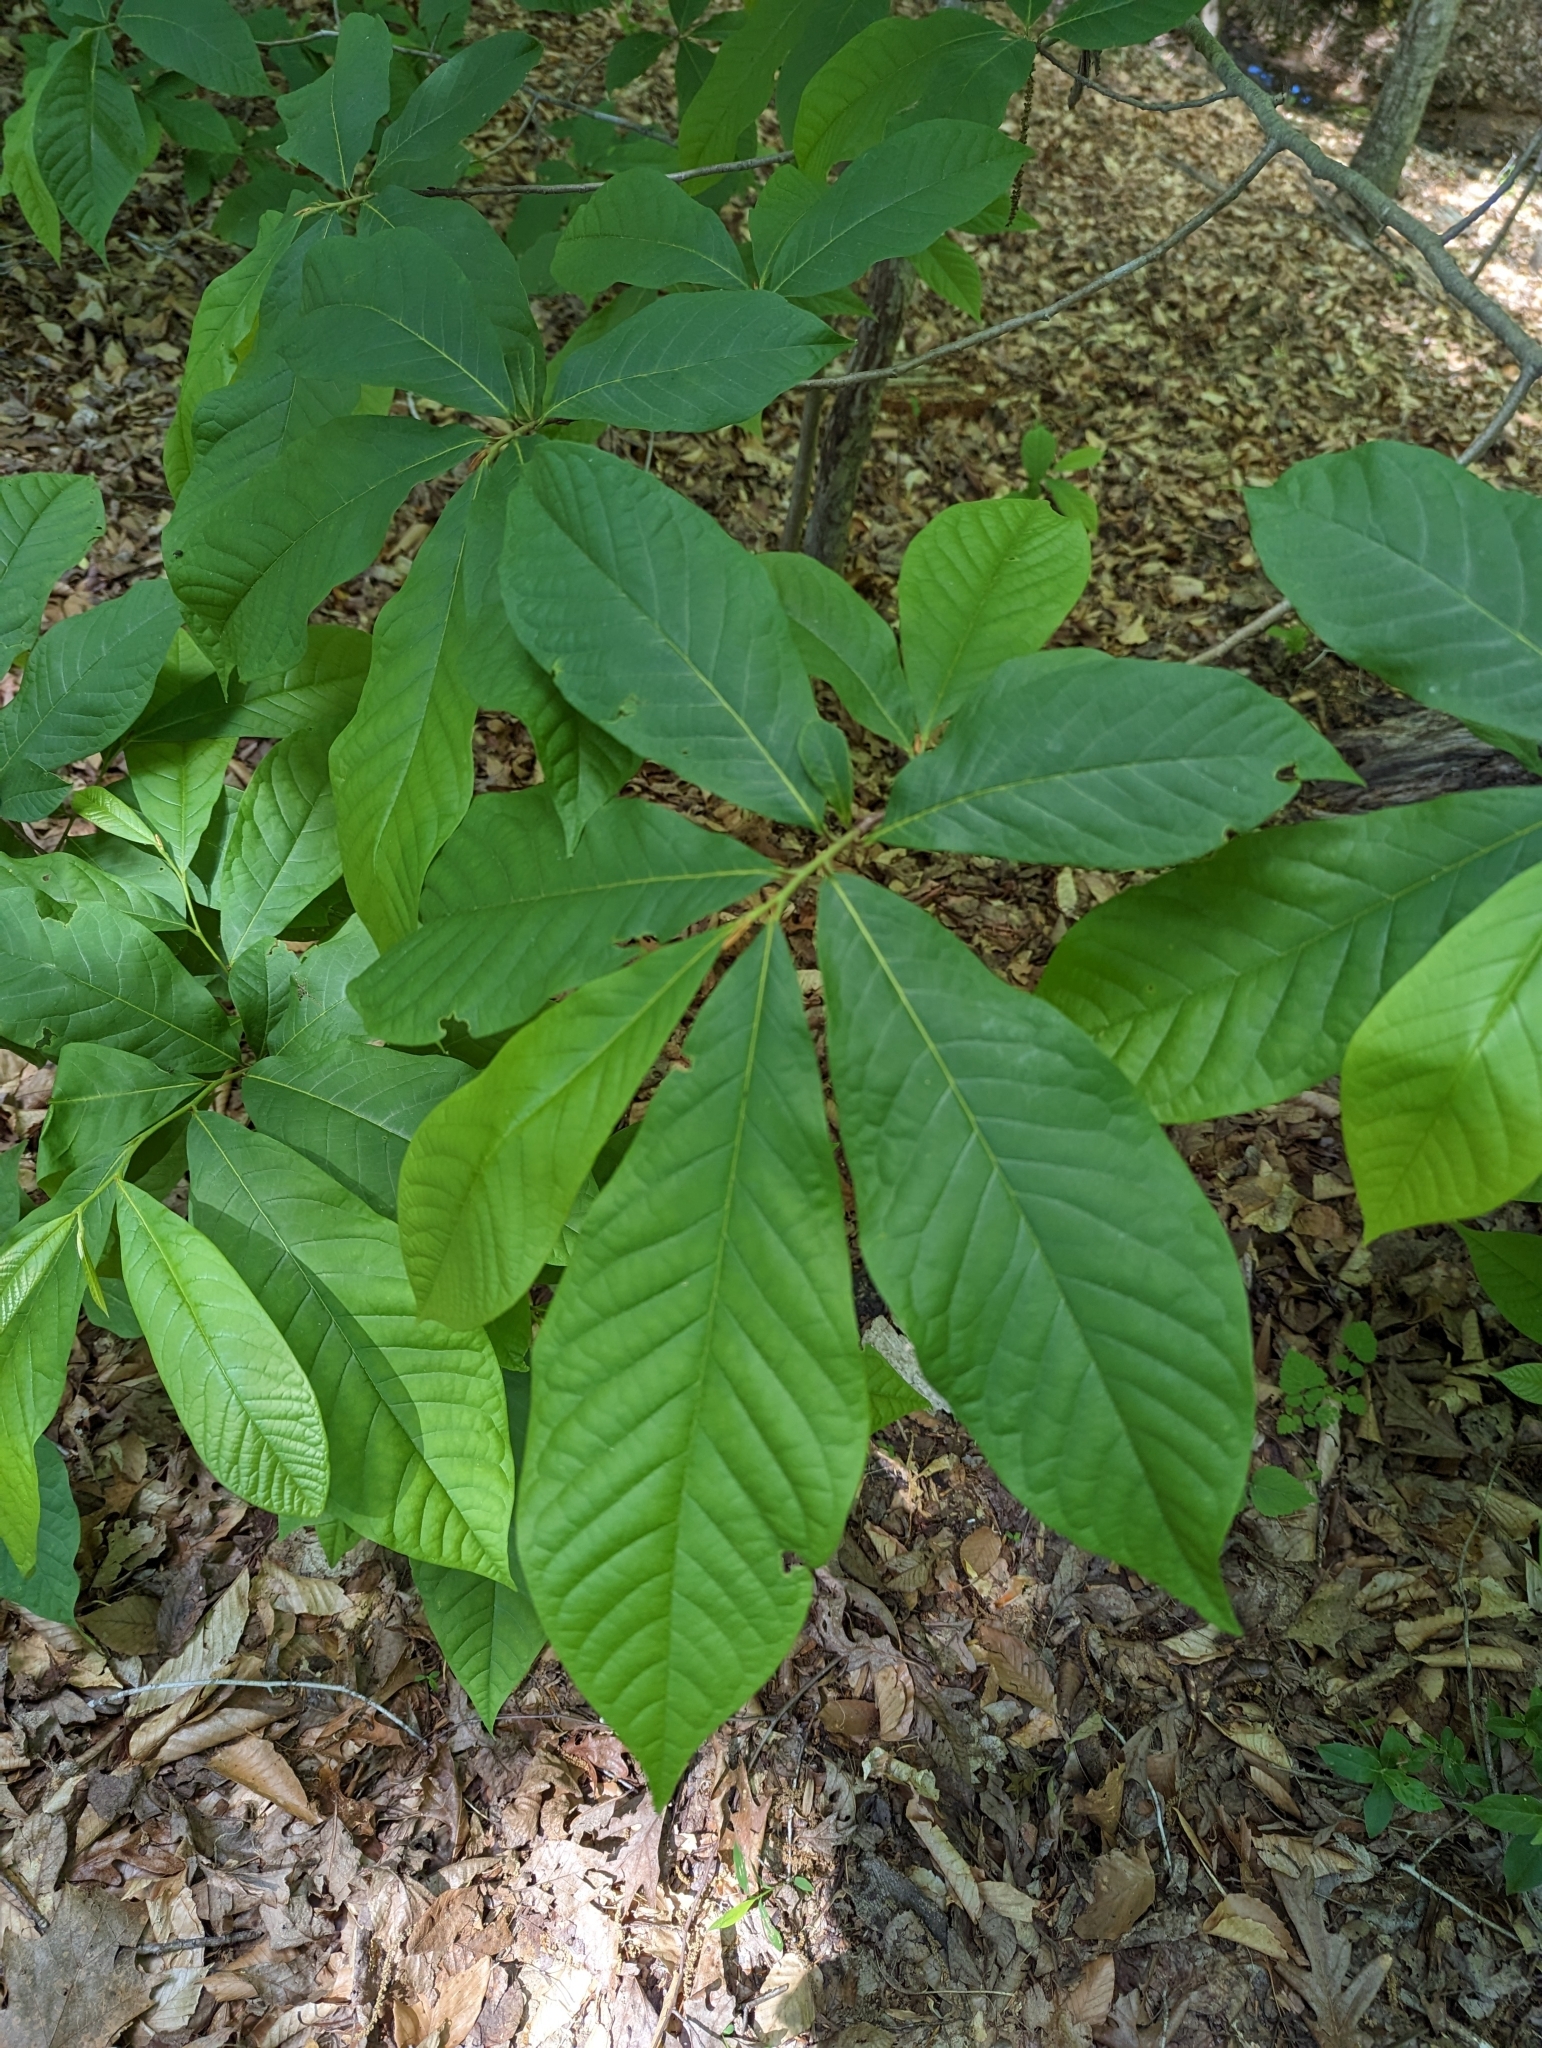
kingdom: Plantae
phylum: Tracheophyta
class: Magnoliopsida
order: Magnoliales
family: Annonaceae
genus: Asimina
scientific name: Asimina triloba
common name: Dog-banana
